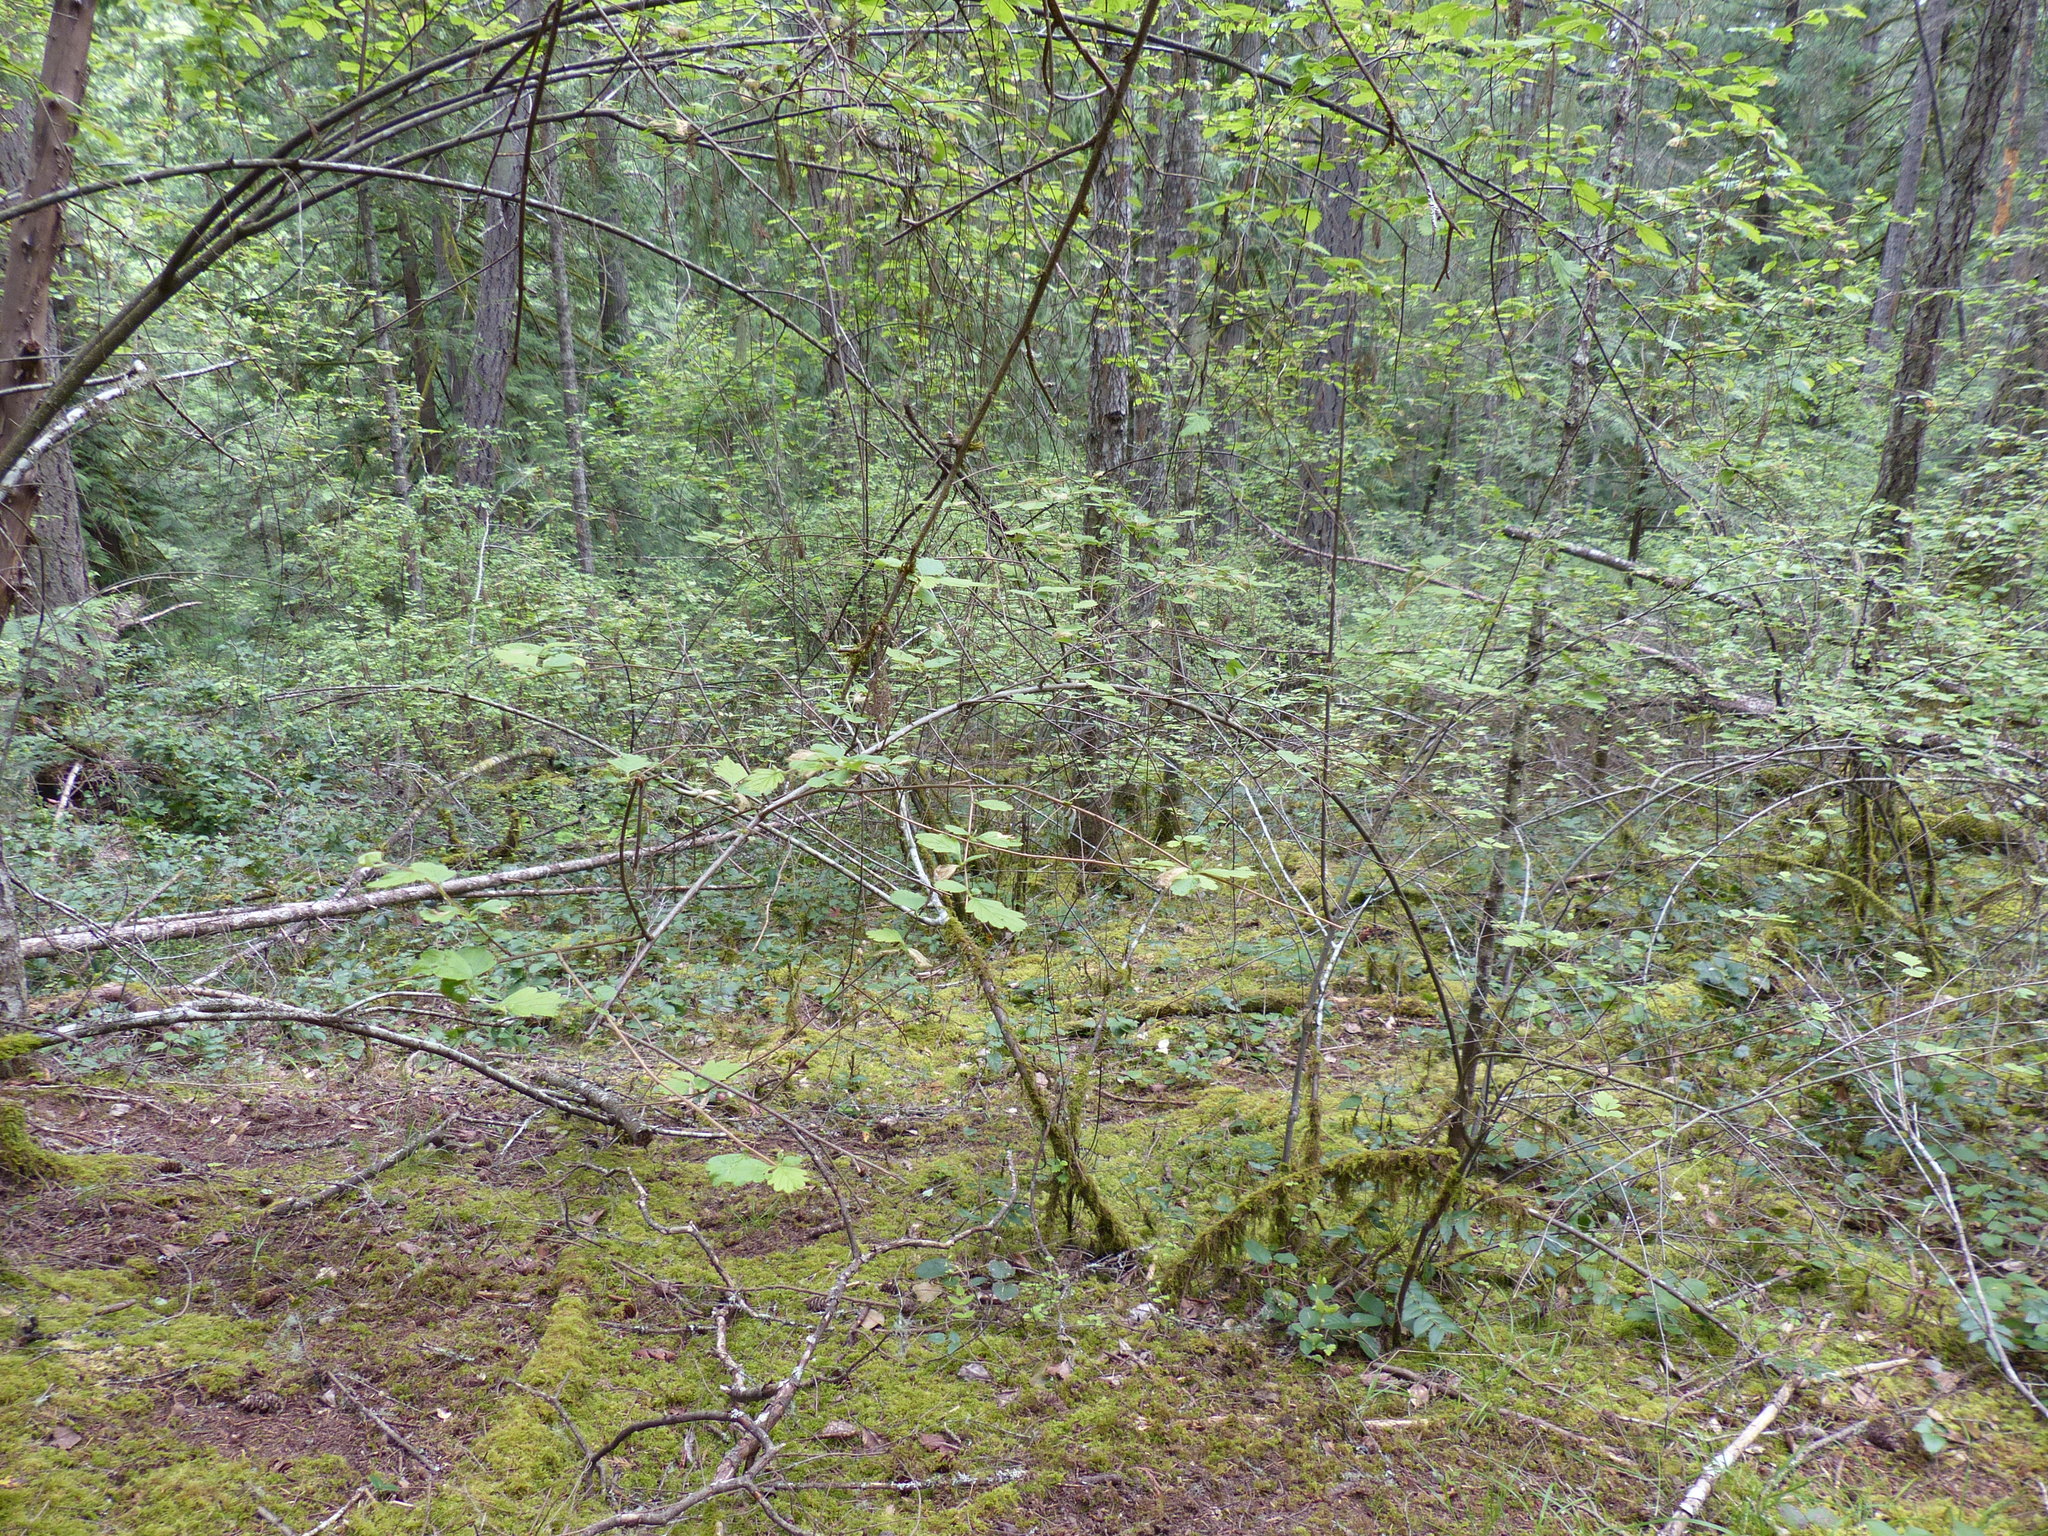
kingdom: Plantae
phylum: Tracheophyta
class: Magnoliopsida
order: Rosales
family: Rosaceae
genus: Holodiscus
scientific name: Holodiscus discolor
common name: Oceanspray
